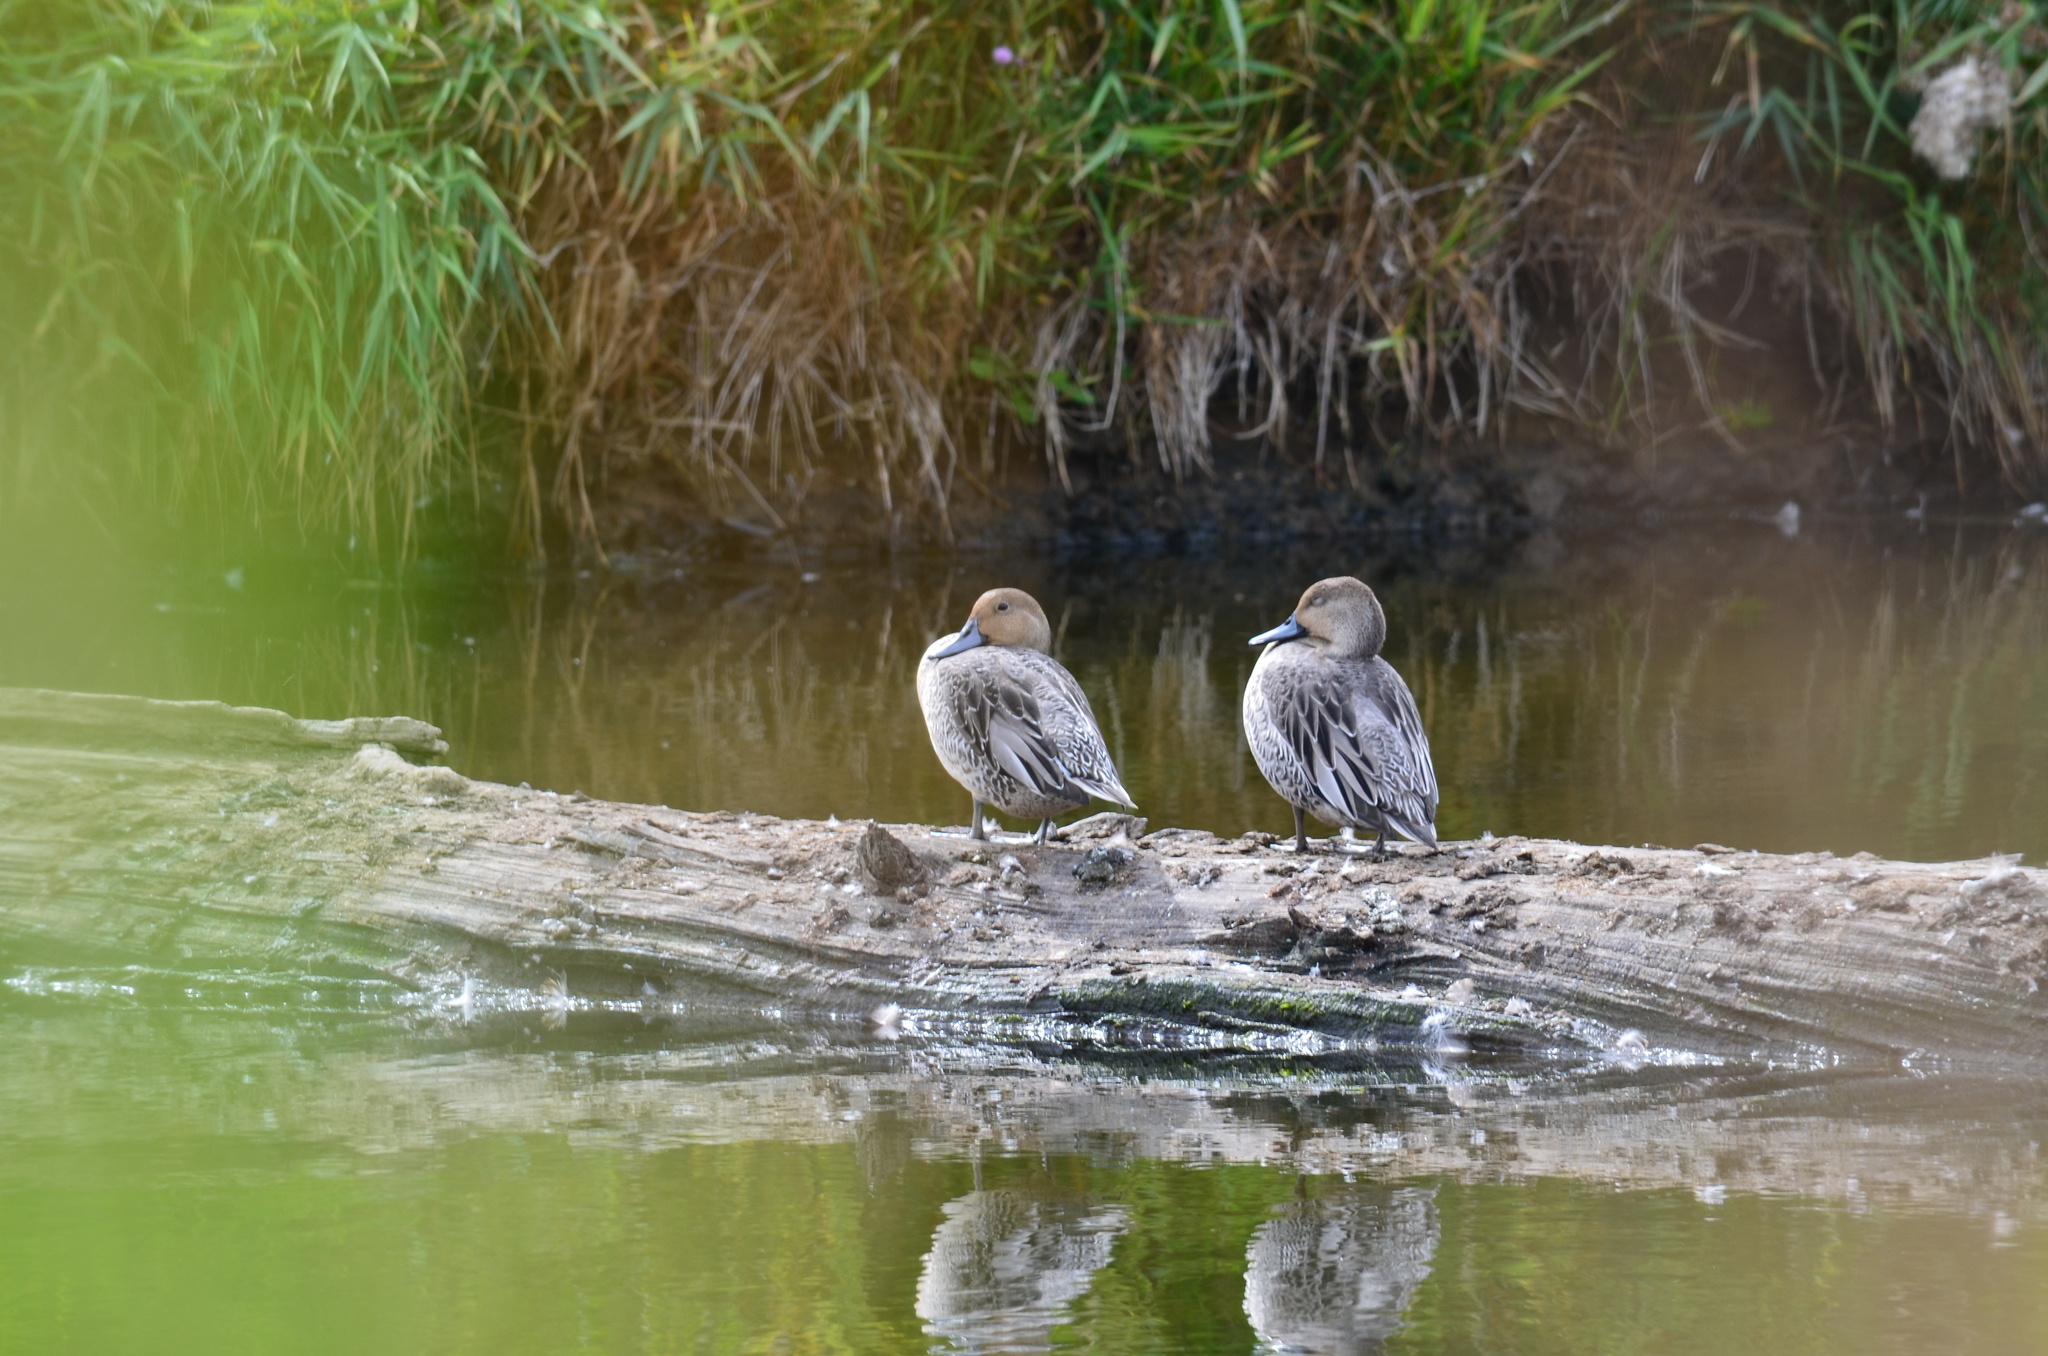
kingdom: Animalia
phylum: Chordata
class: Aves
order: Anseriformes
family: Anatidae
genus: Anas
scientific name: Anas acuta
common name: Northern pintail
